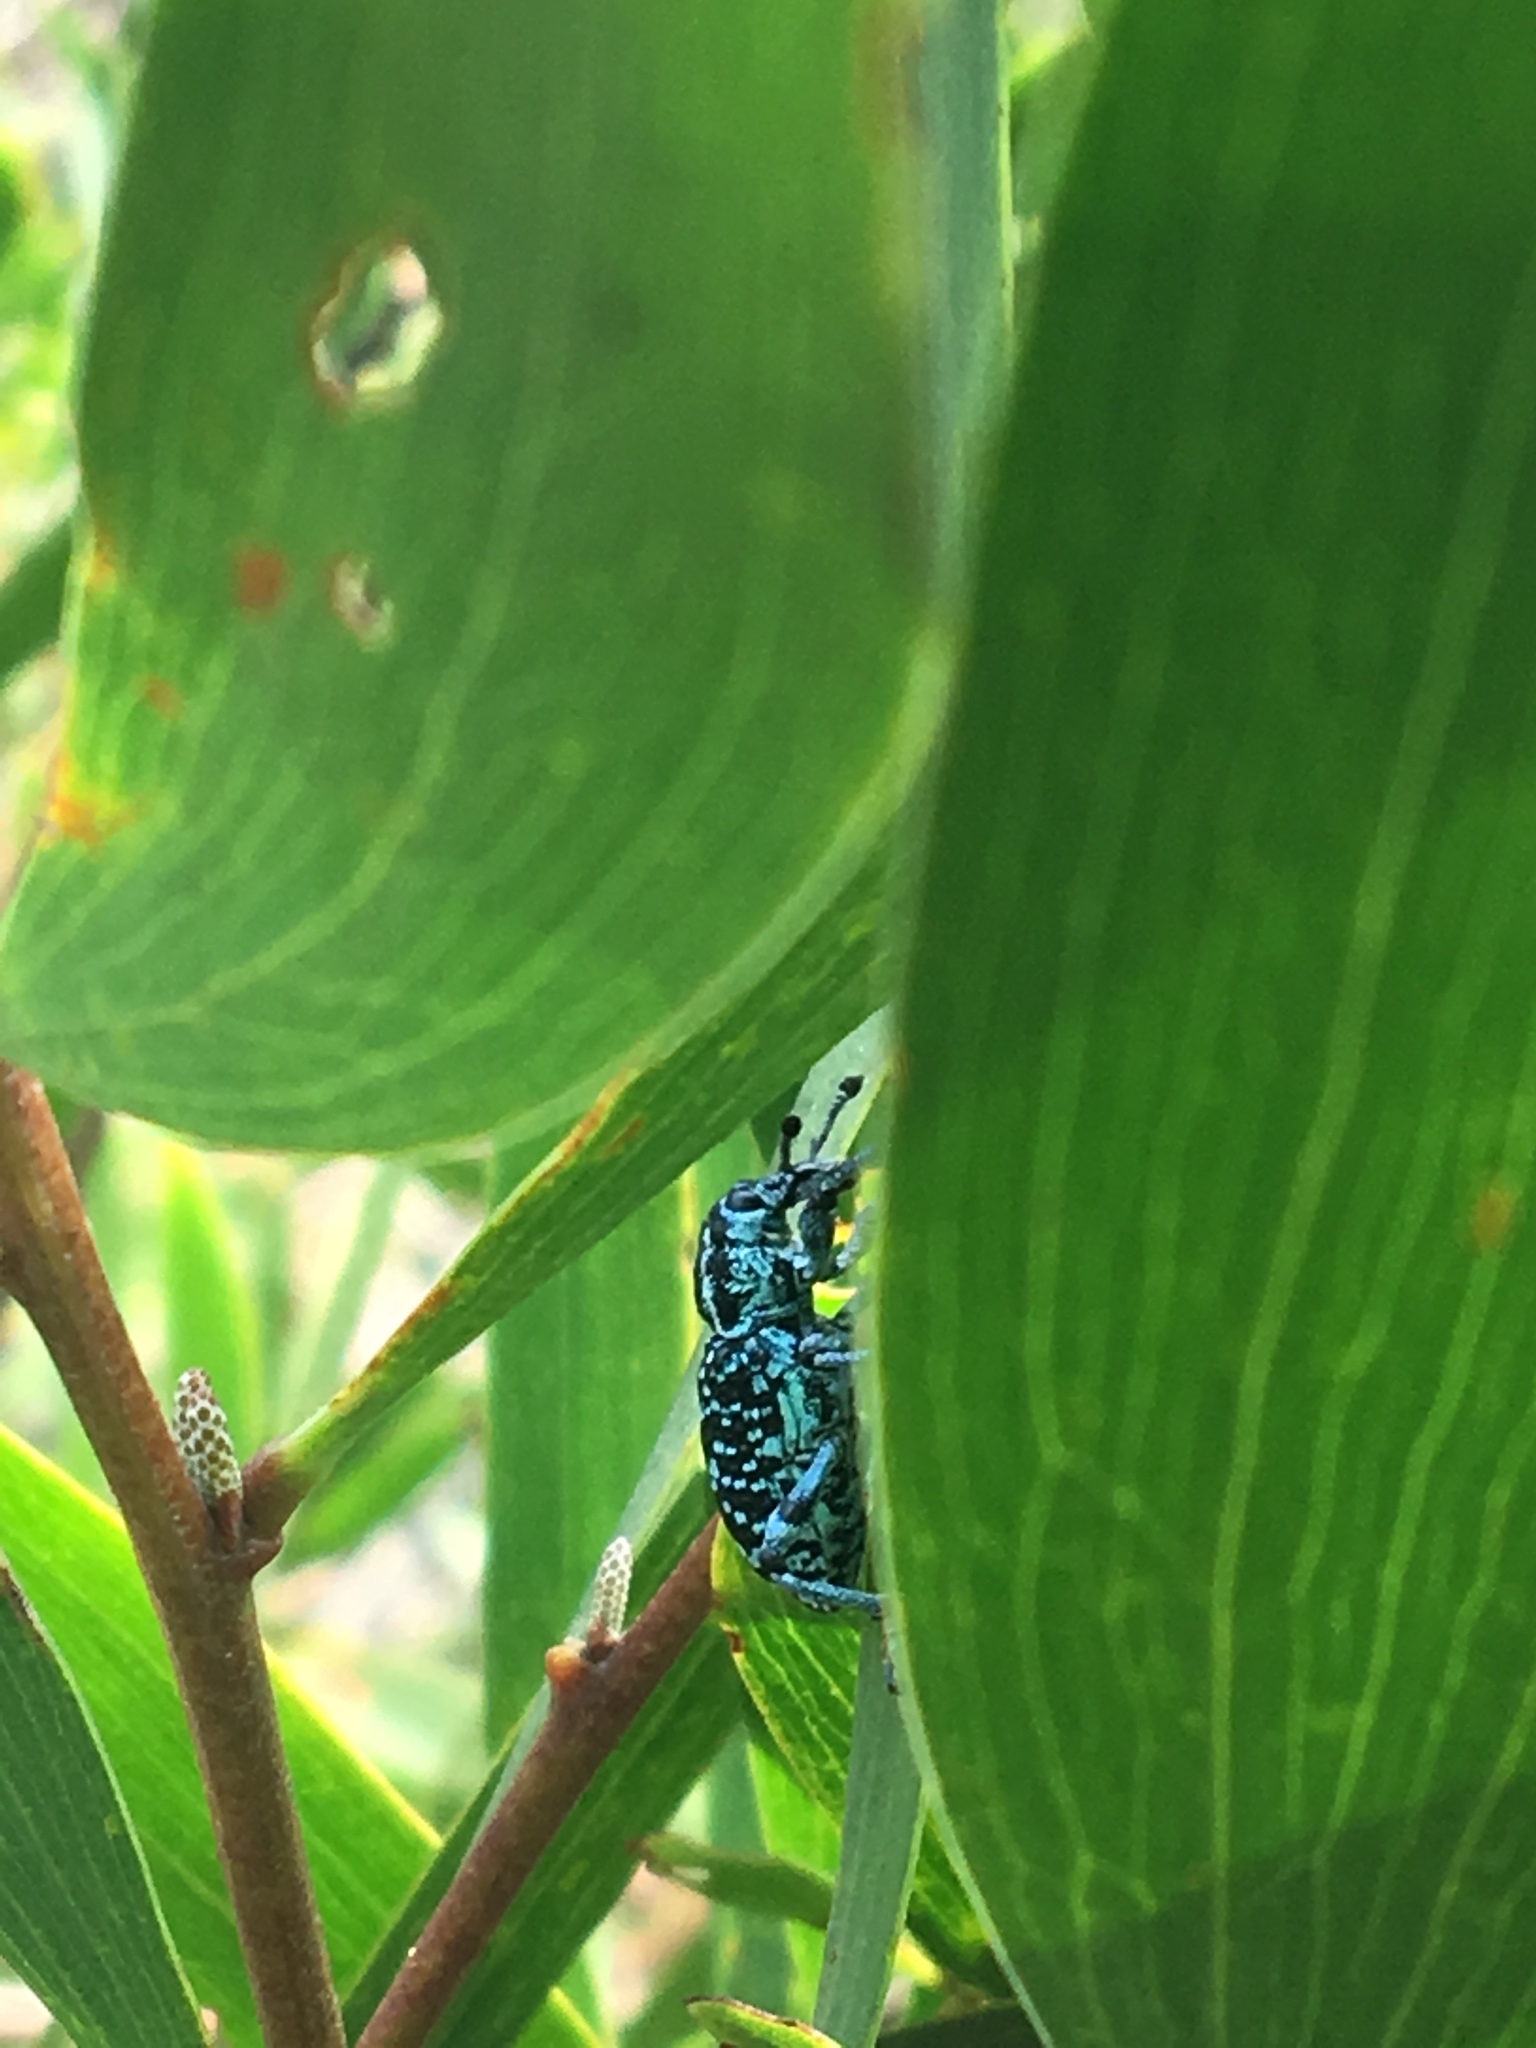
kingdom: Animalia
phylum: Arthropoda
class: Insecta
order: Coleoptera
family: Curculionidae
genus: Chrysolopus
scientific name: Chrysolopus spectabilis
